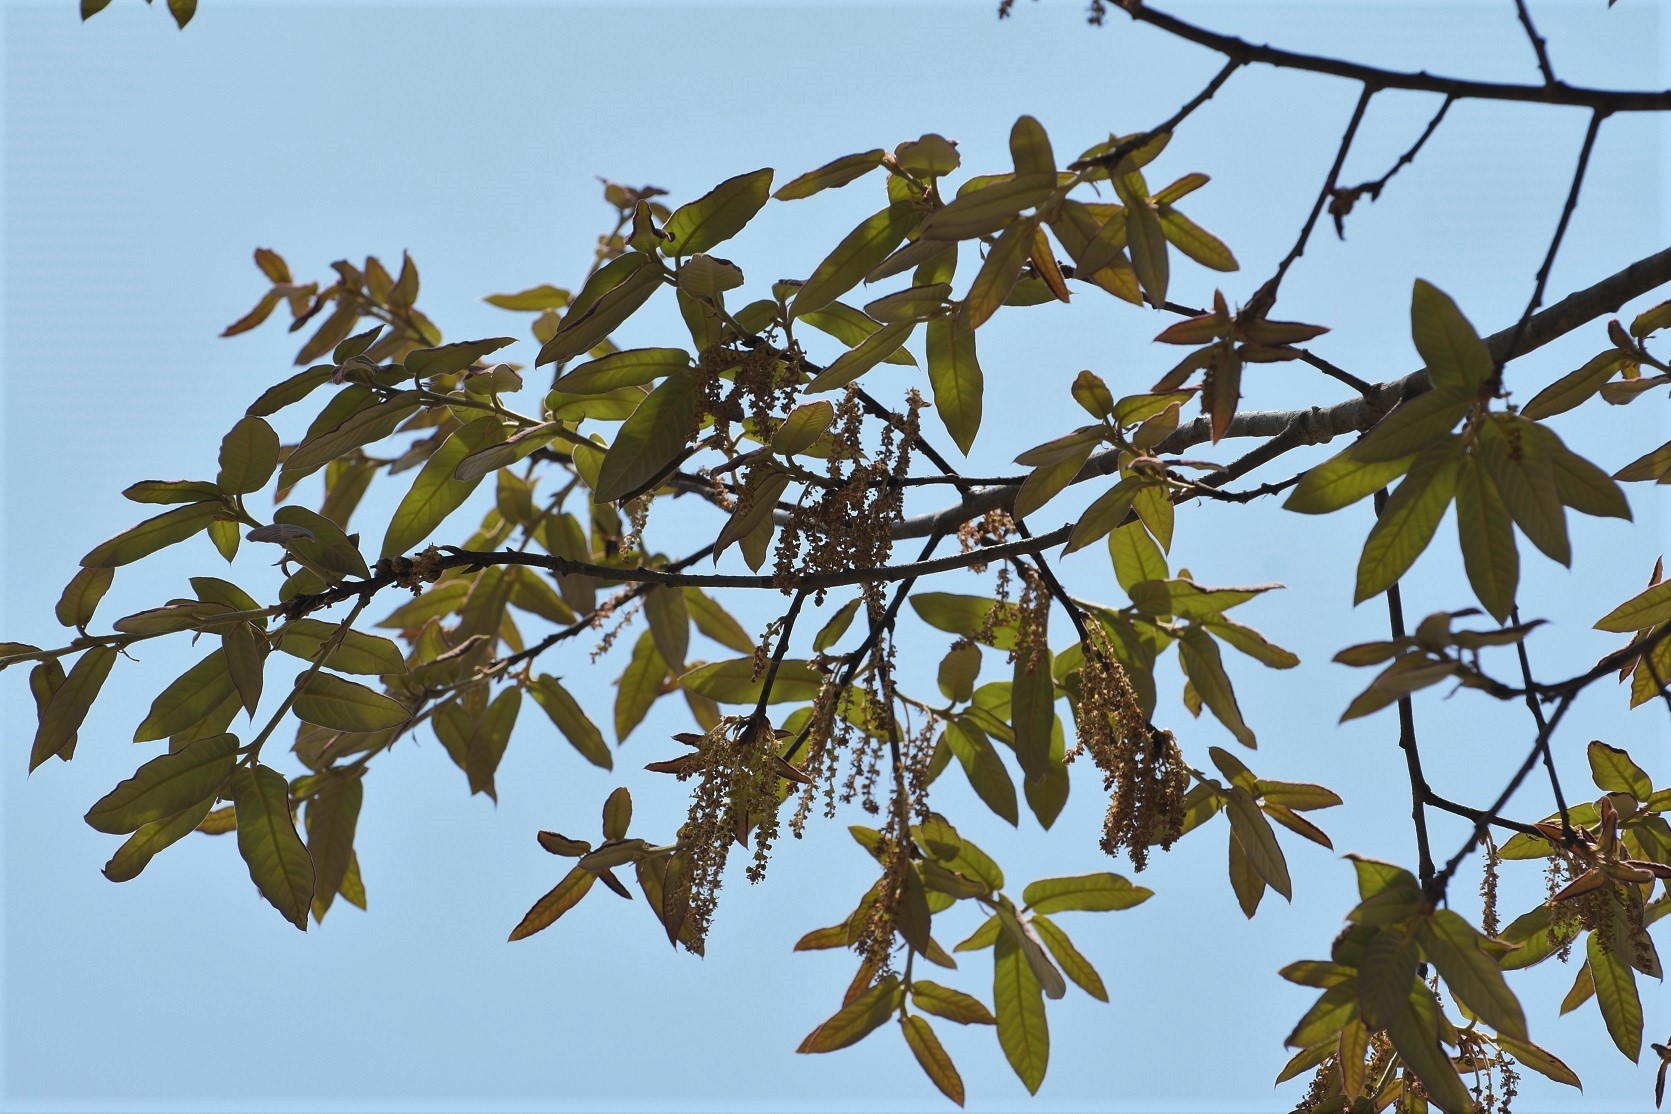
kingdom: Plantae
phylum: Tracheophyta
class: Magnoliopsida
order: Fagales
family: Fagaceae
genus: Quercus
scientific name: Quercus dysophylla
